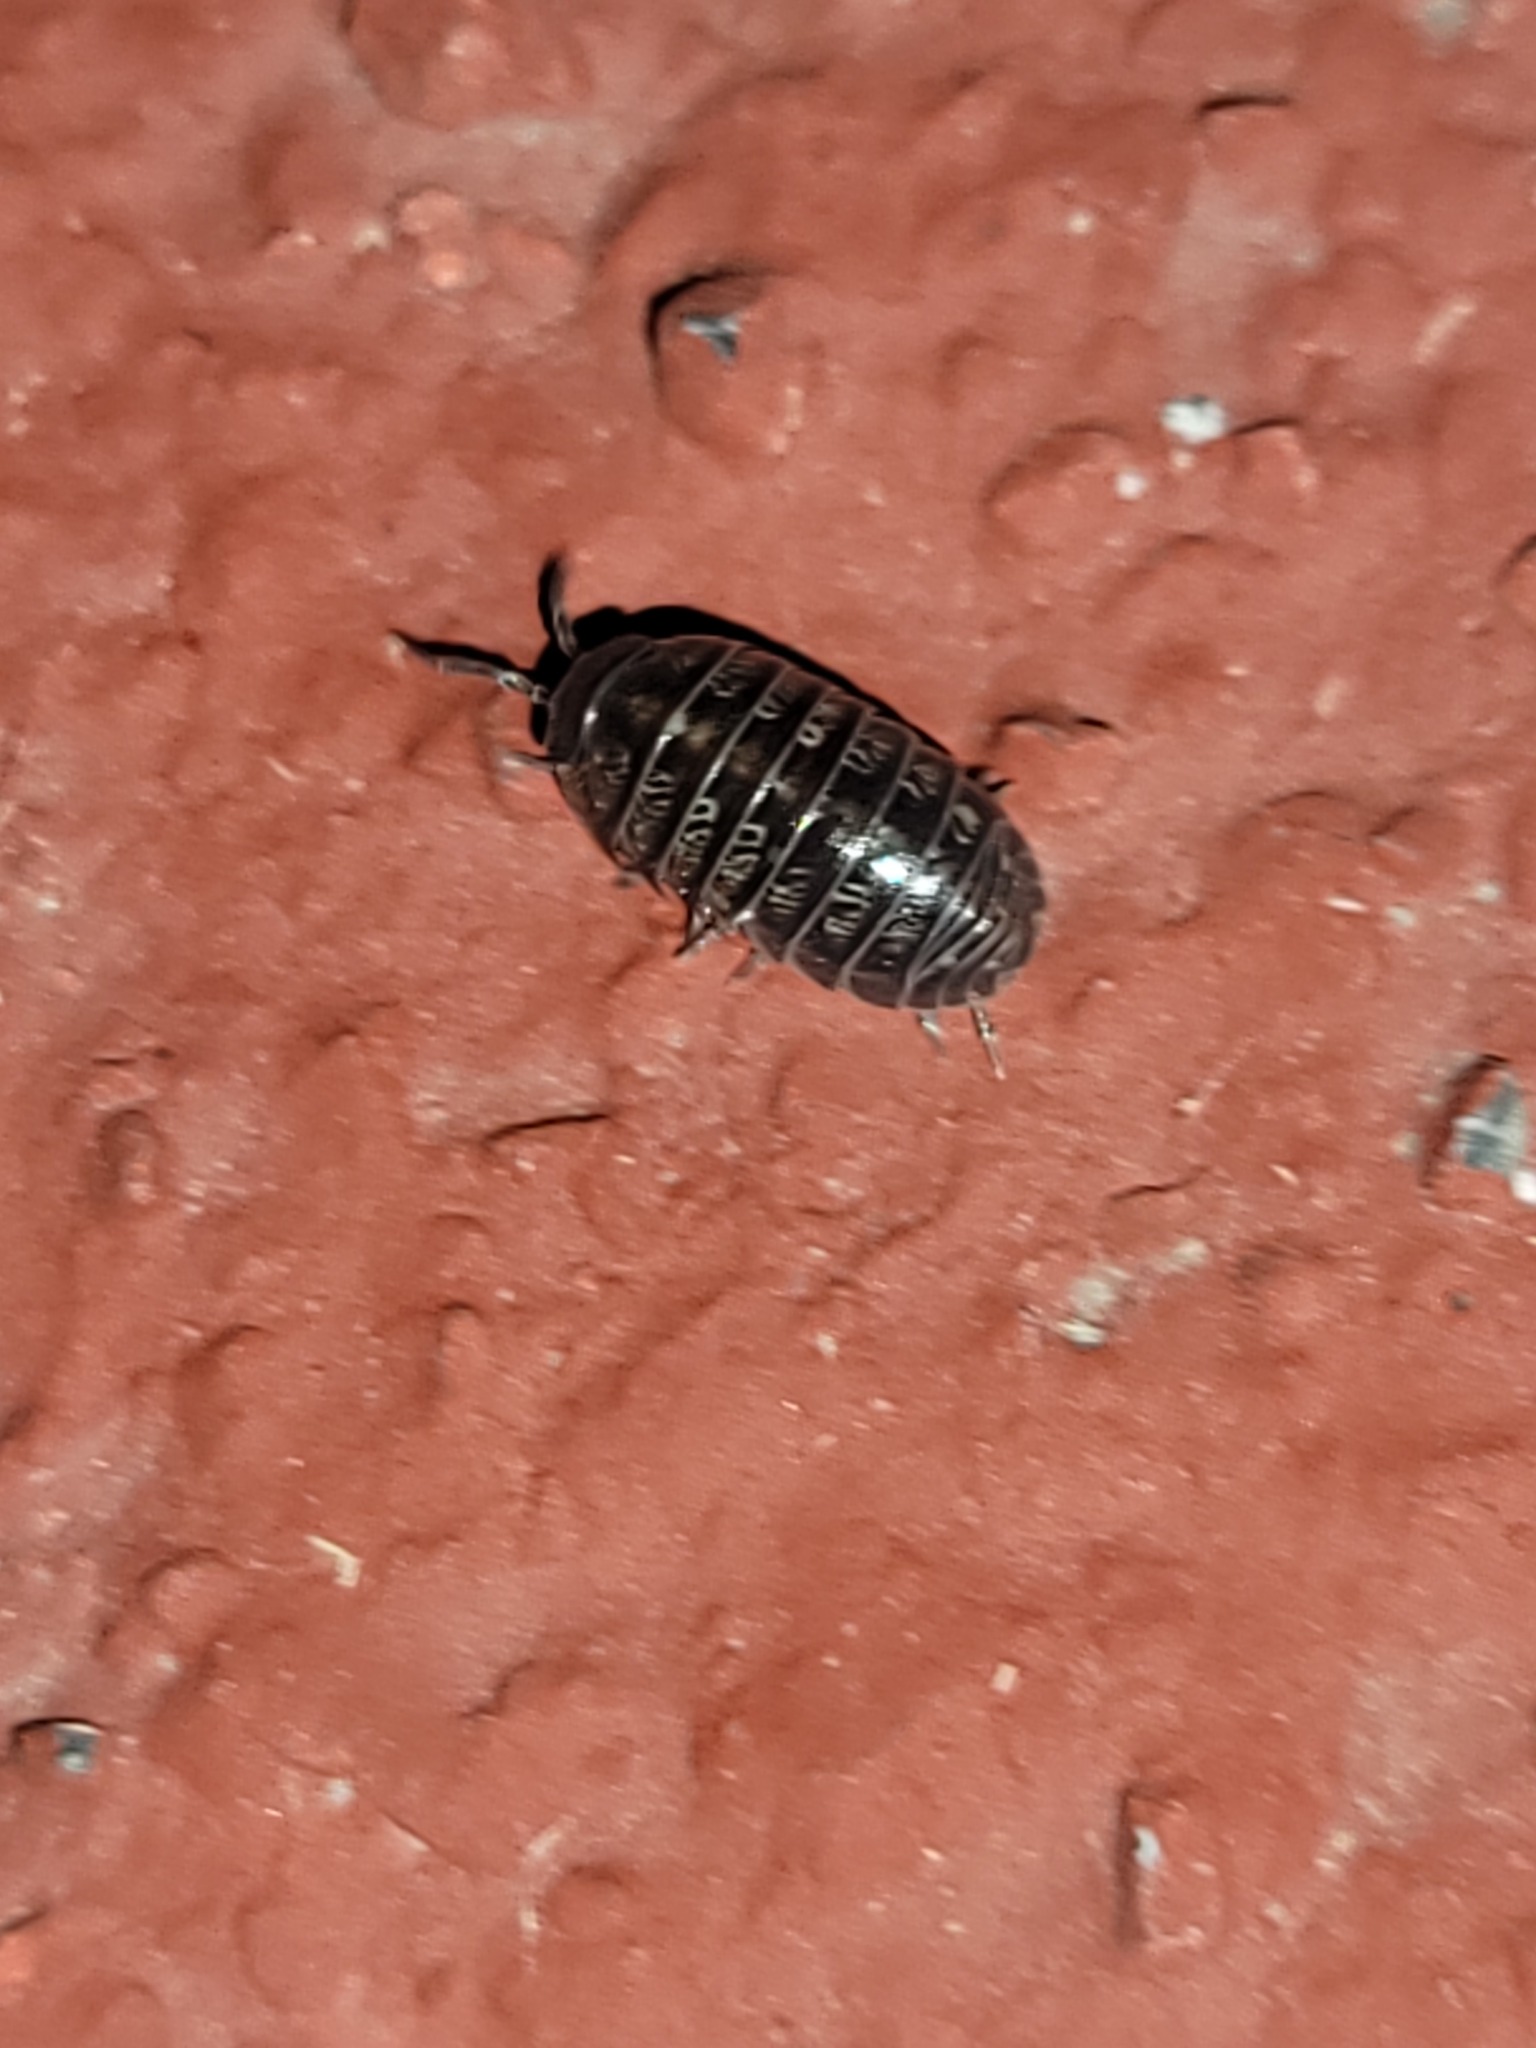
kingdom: Animalia
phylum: Arthropoda
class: Malacostraca
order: Isopoda
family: Armadillidiidae
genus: Armadillidium
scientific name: Armadillidium vulgare
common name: Common pill woodlouse
